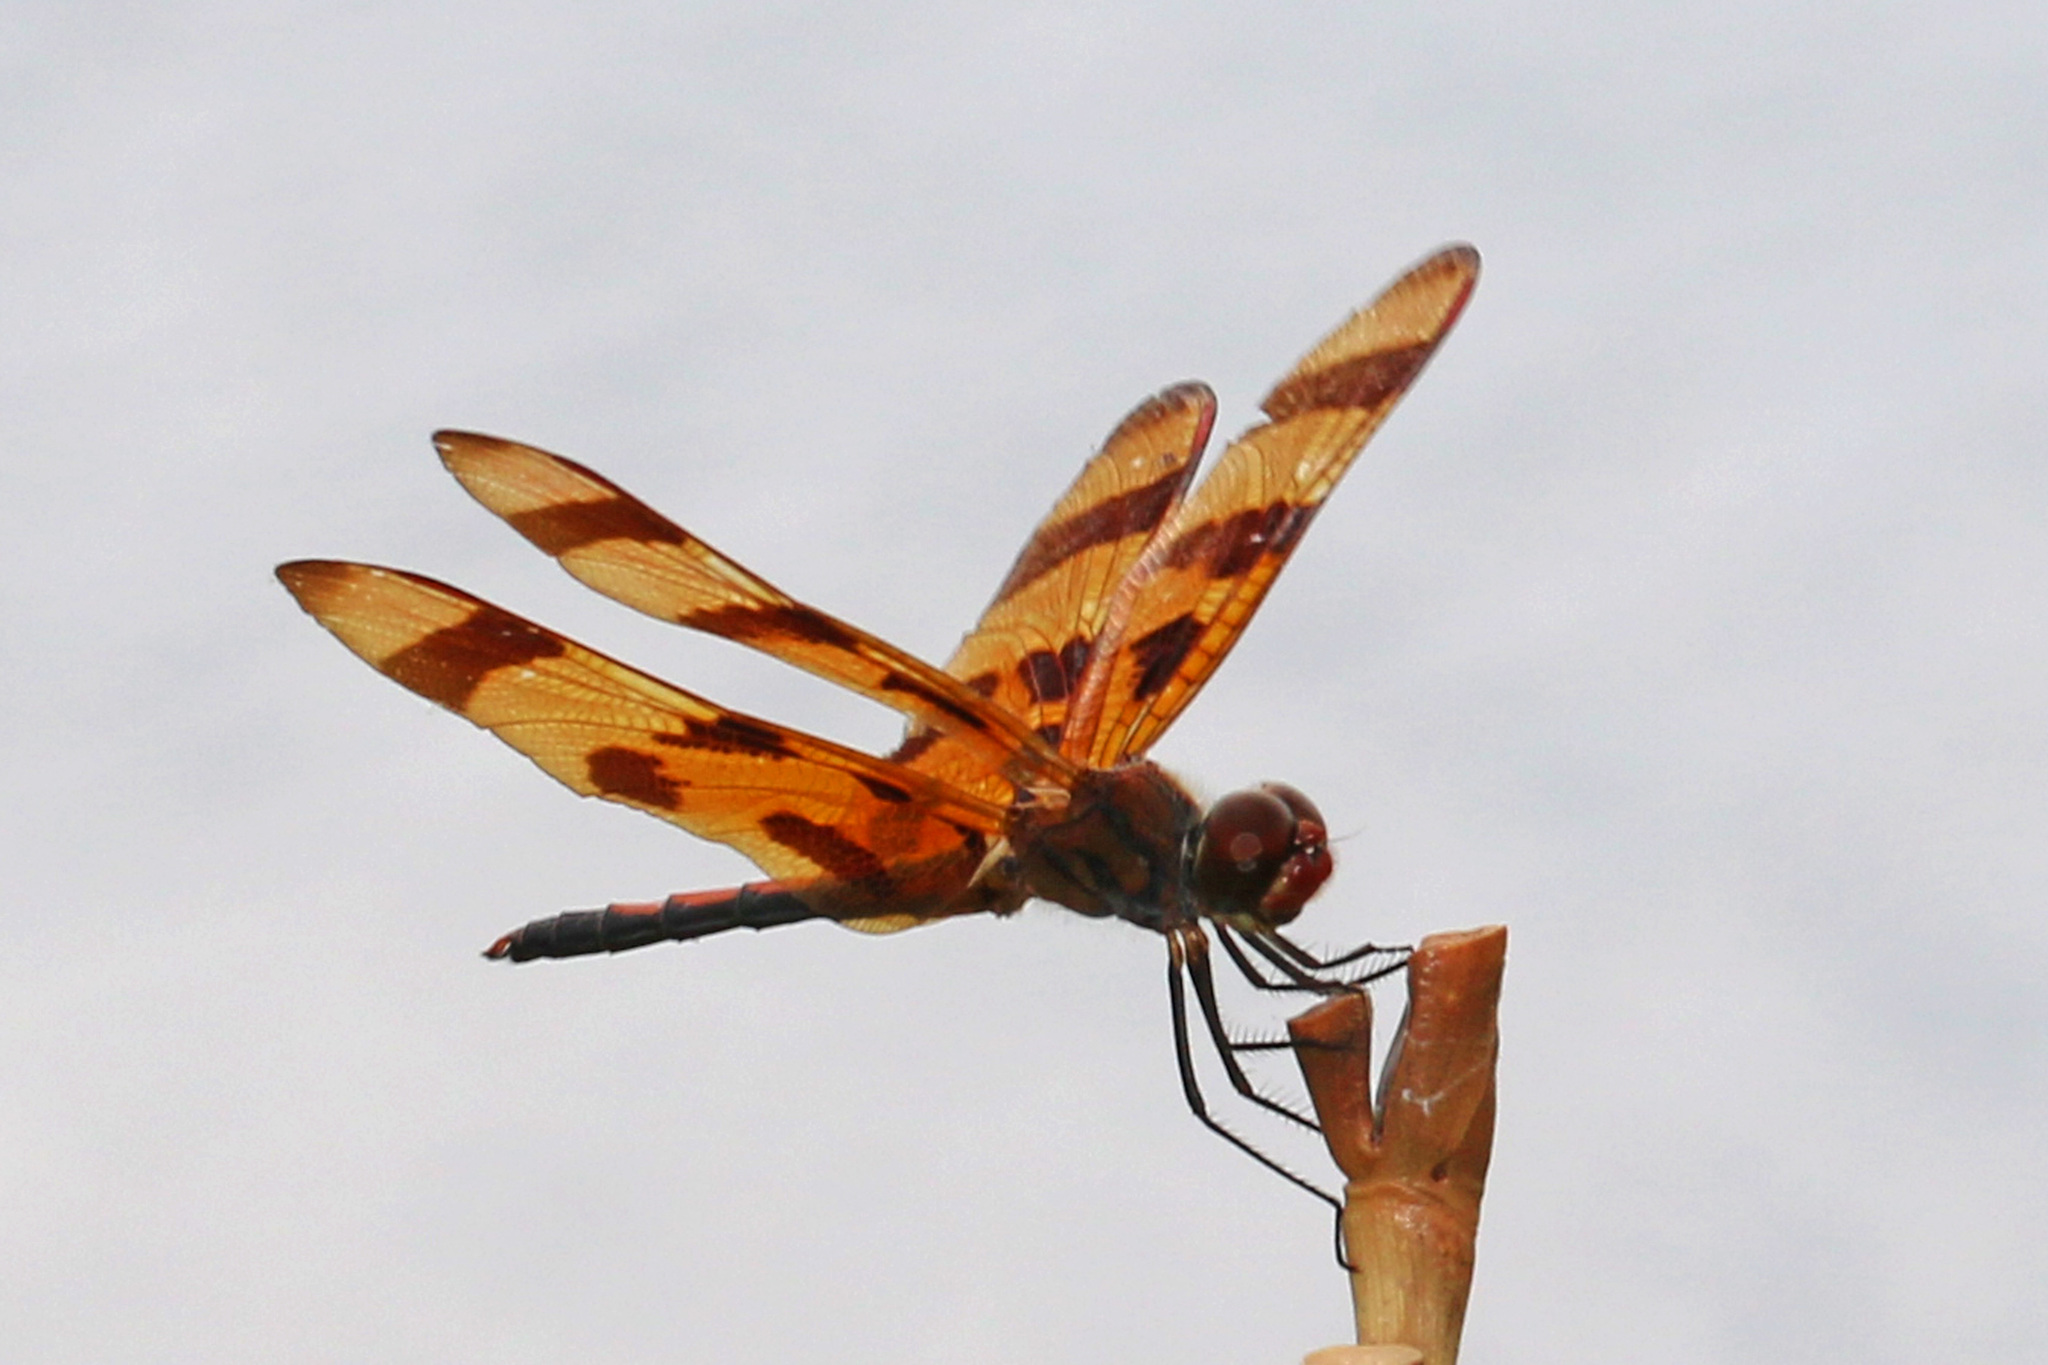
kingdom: Animalia
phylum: Arthropoda
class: Insecta
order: Odonata
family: Libellulidae
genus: Celithemis
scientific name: Celithemis eponina
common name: Halloween pennant
